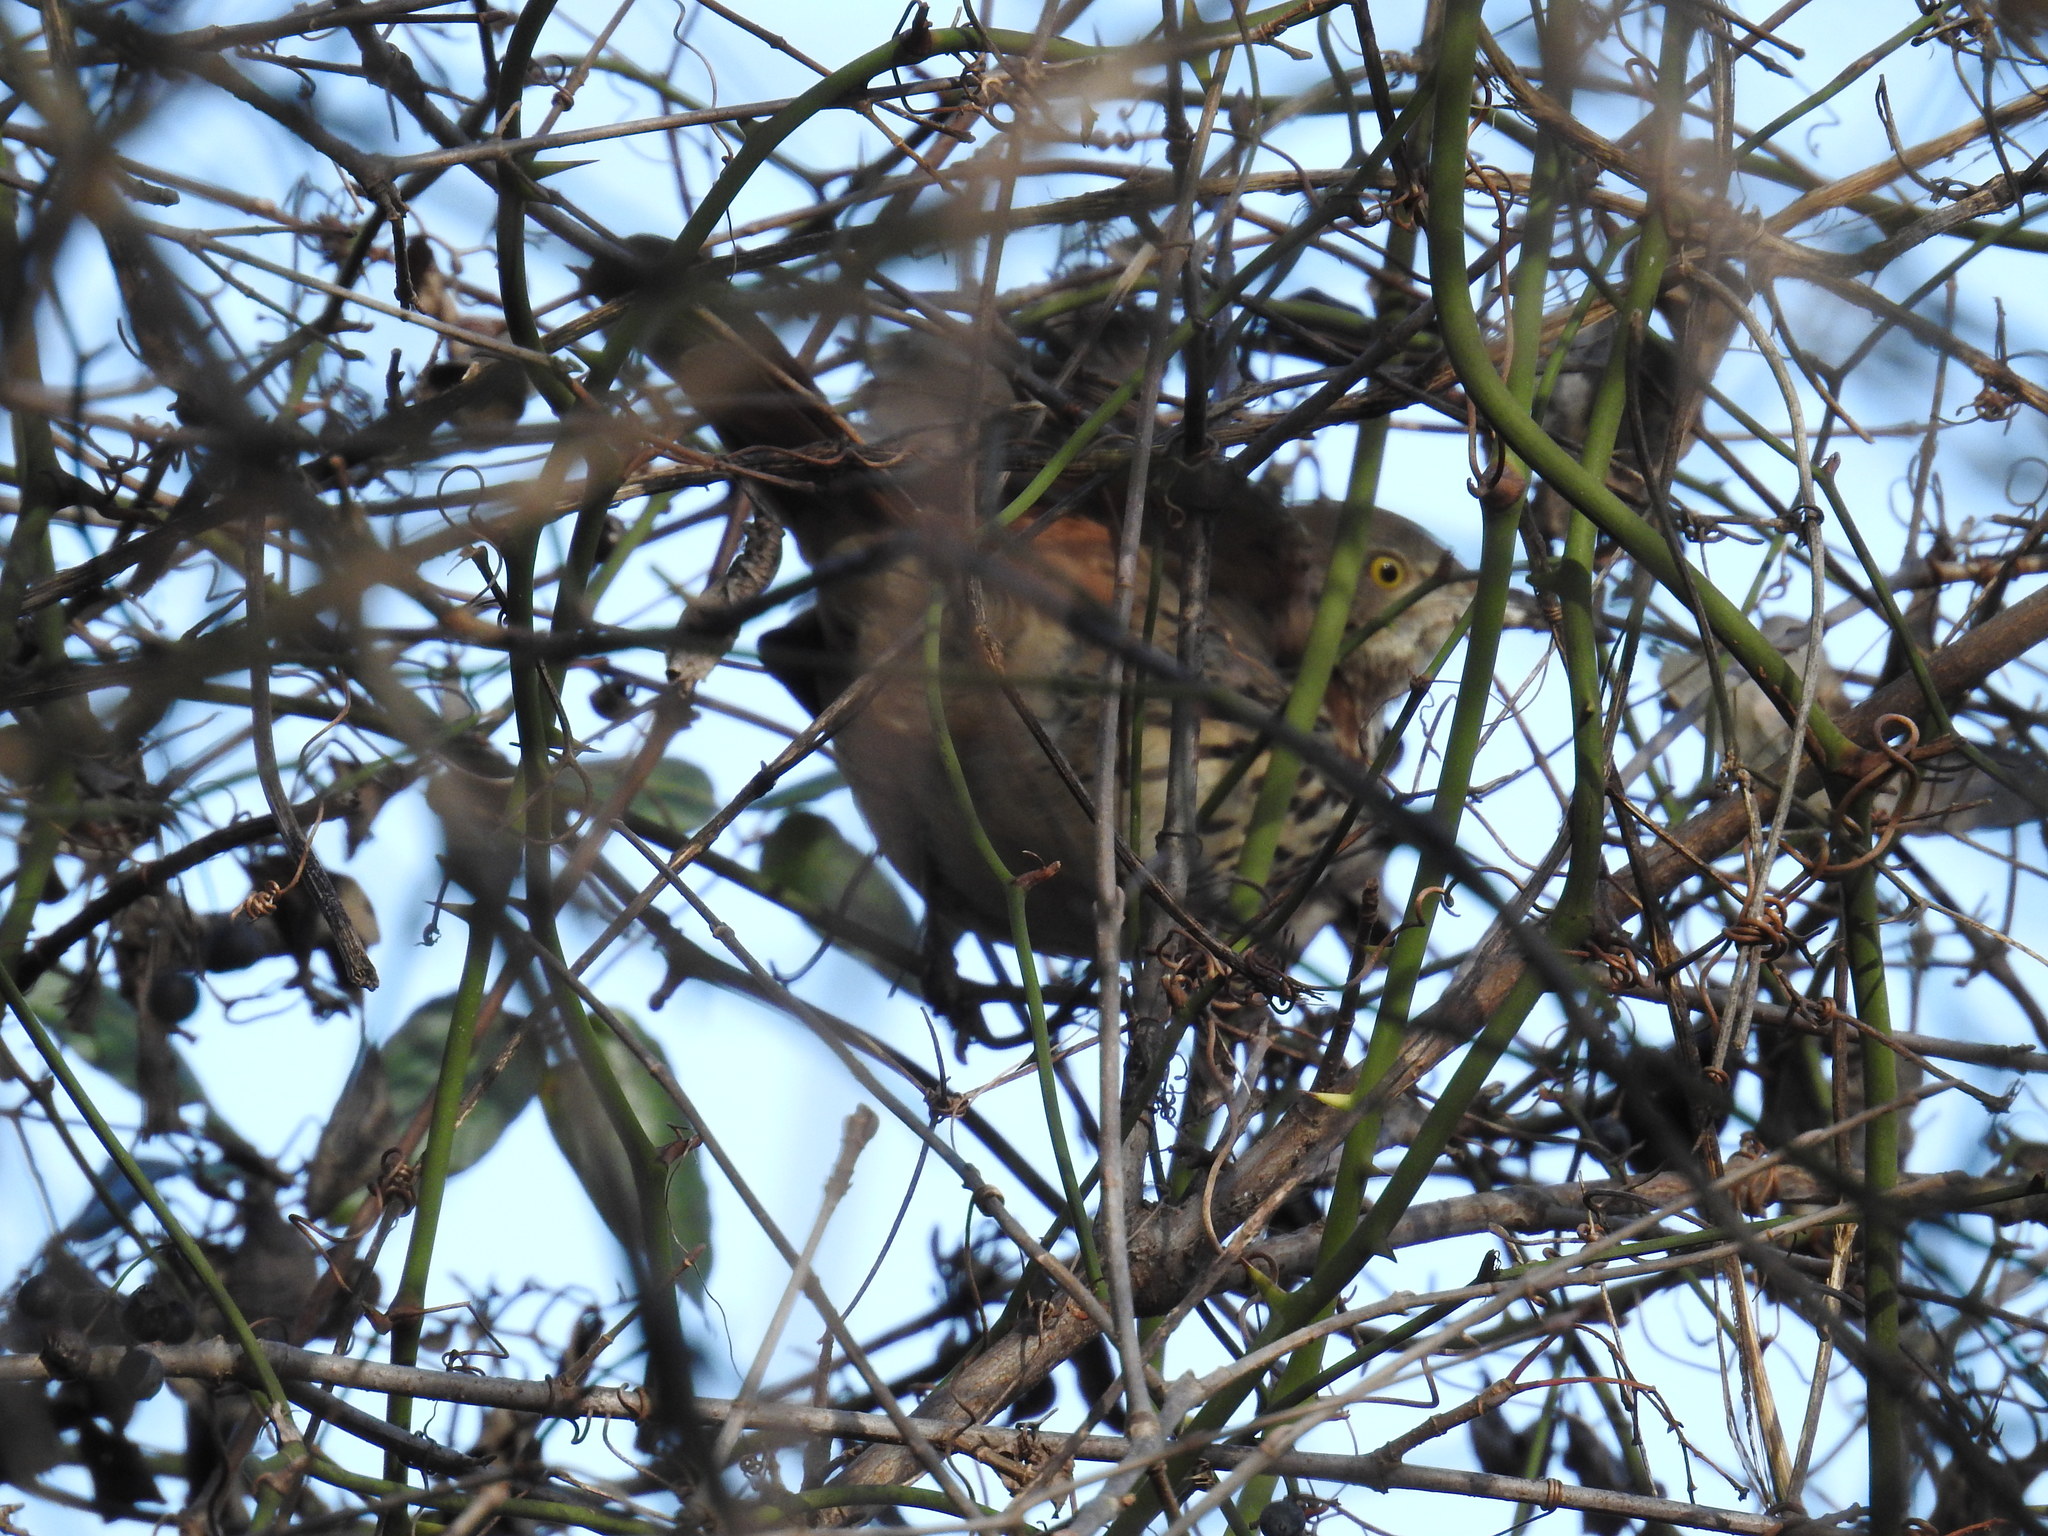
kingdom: Animalia
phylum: Chordata
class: Aves
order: Passeriformes
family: Mimidae
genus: Toxostoma
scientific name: Toxostoma rufum
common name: Brown thrasher
